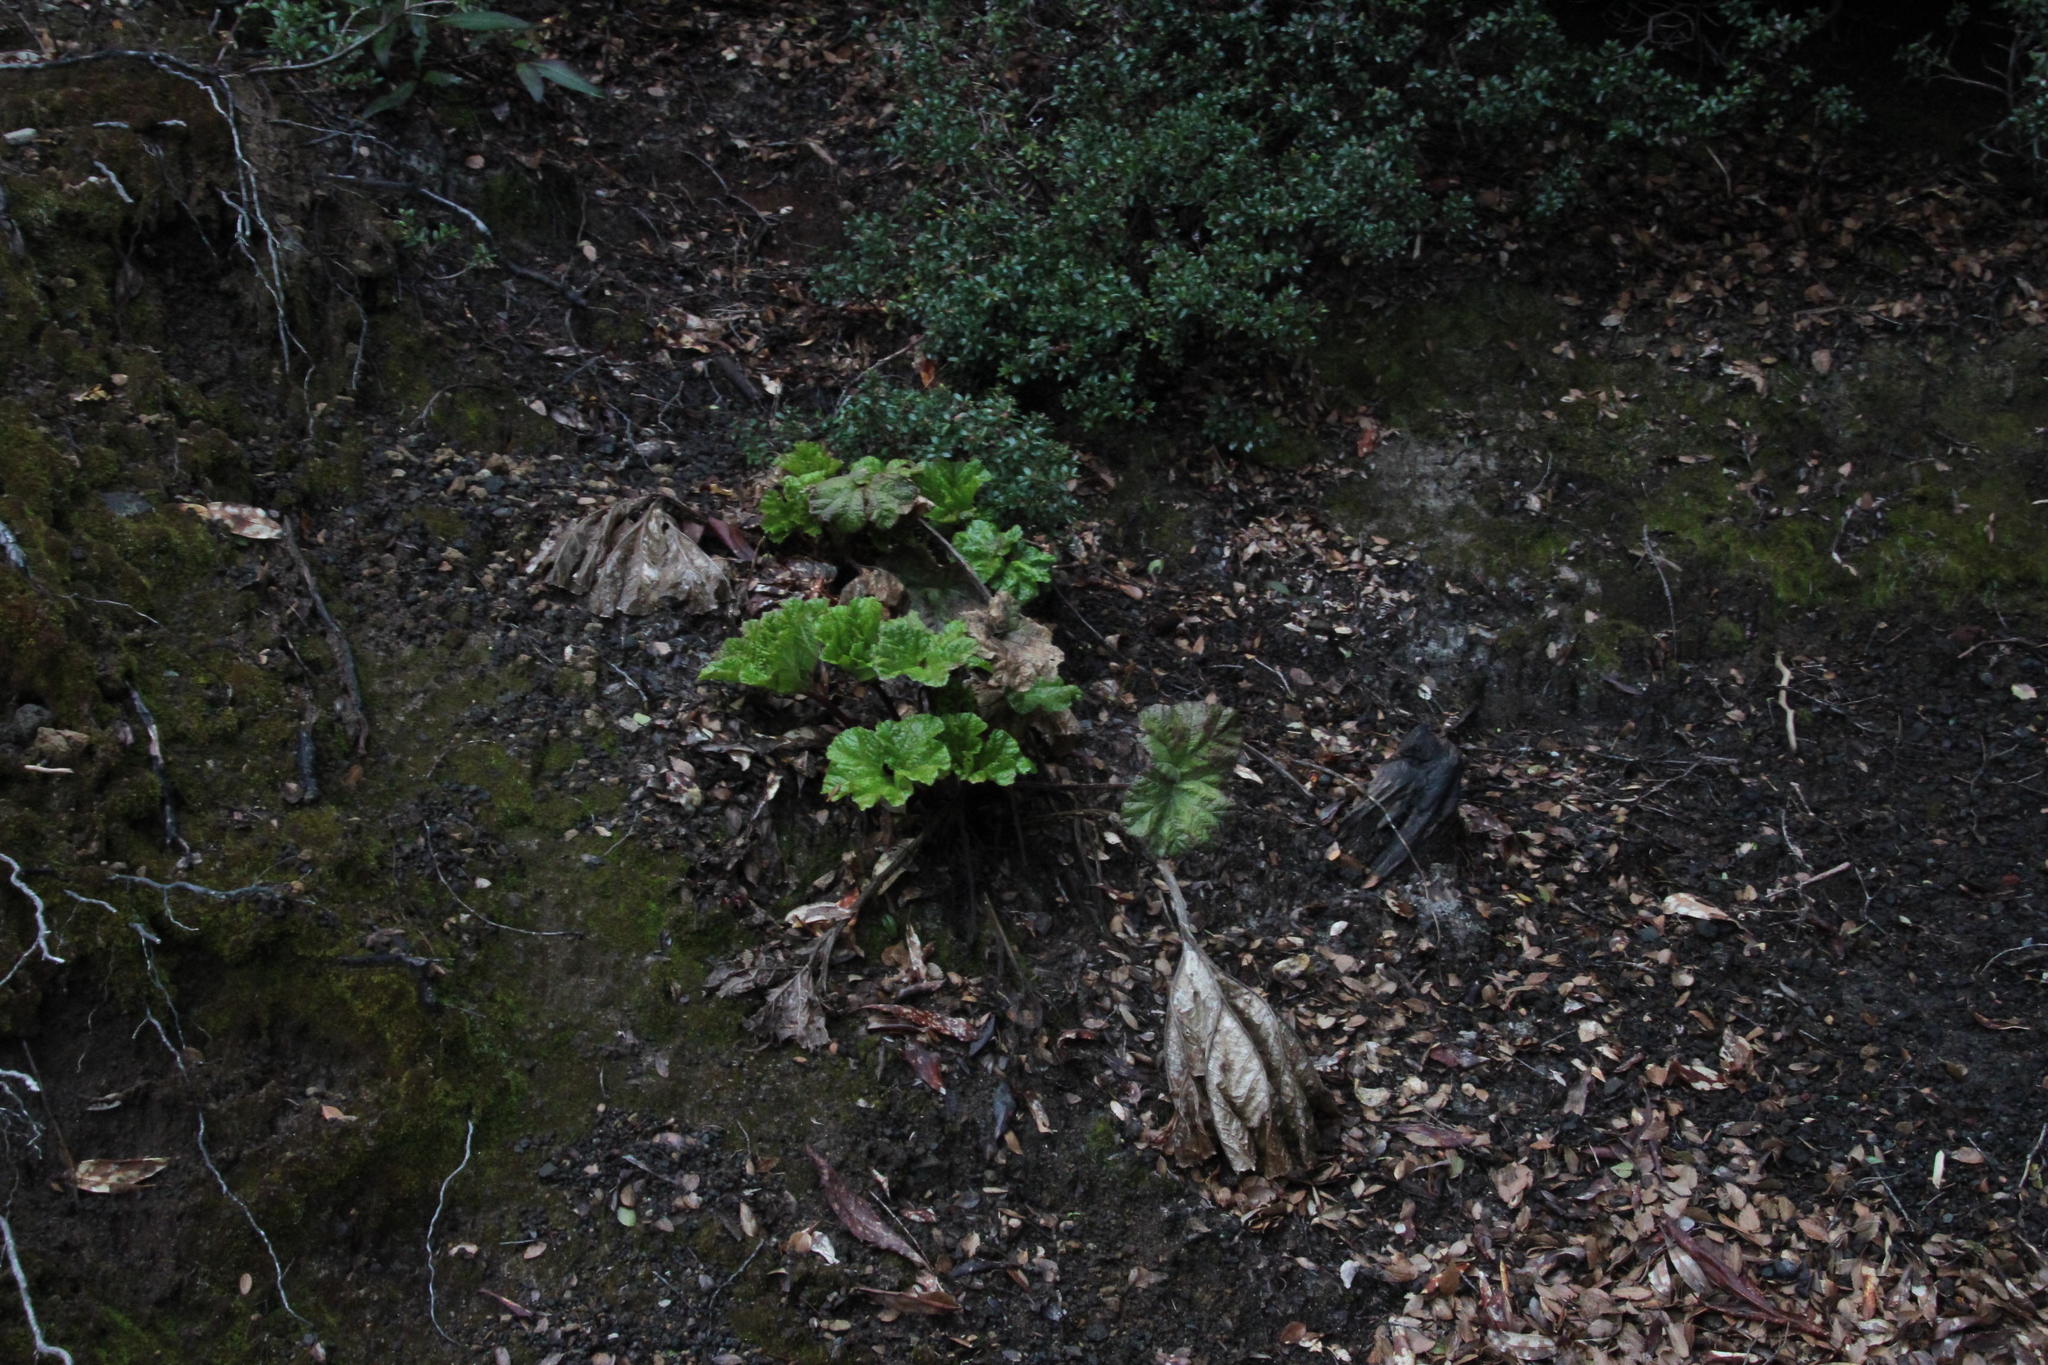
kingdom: Plantae
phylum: Tracheophyta
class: Magnoliopsida
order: Gunnerales
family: Gunneraceae
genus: Gunnera
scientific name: Gunnera tinctoria
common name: Giant-rhubarb
